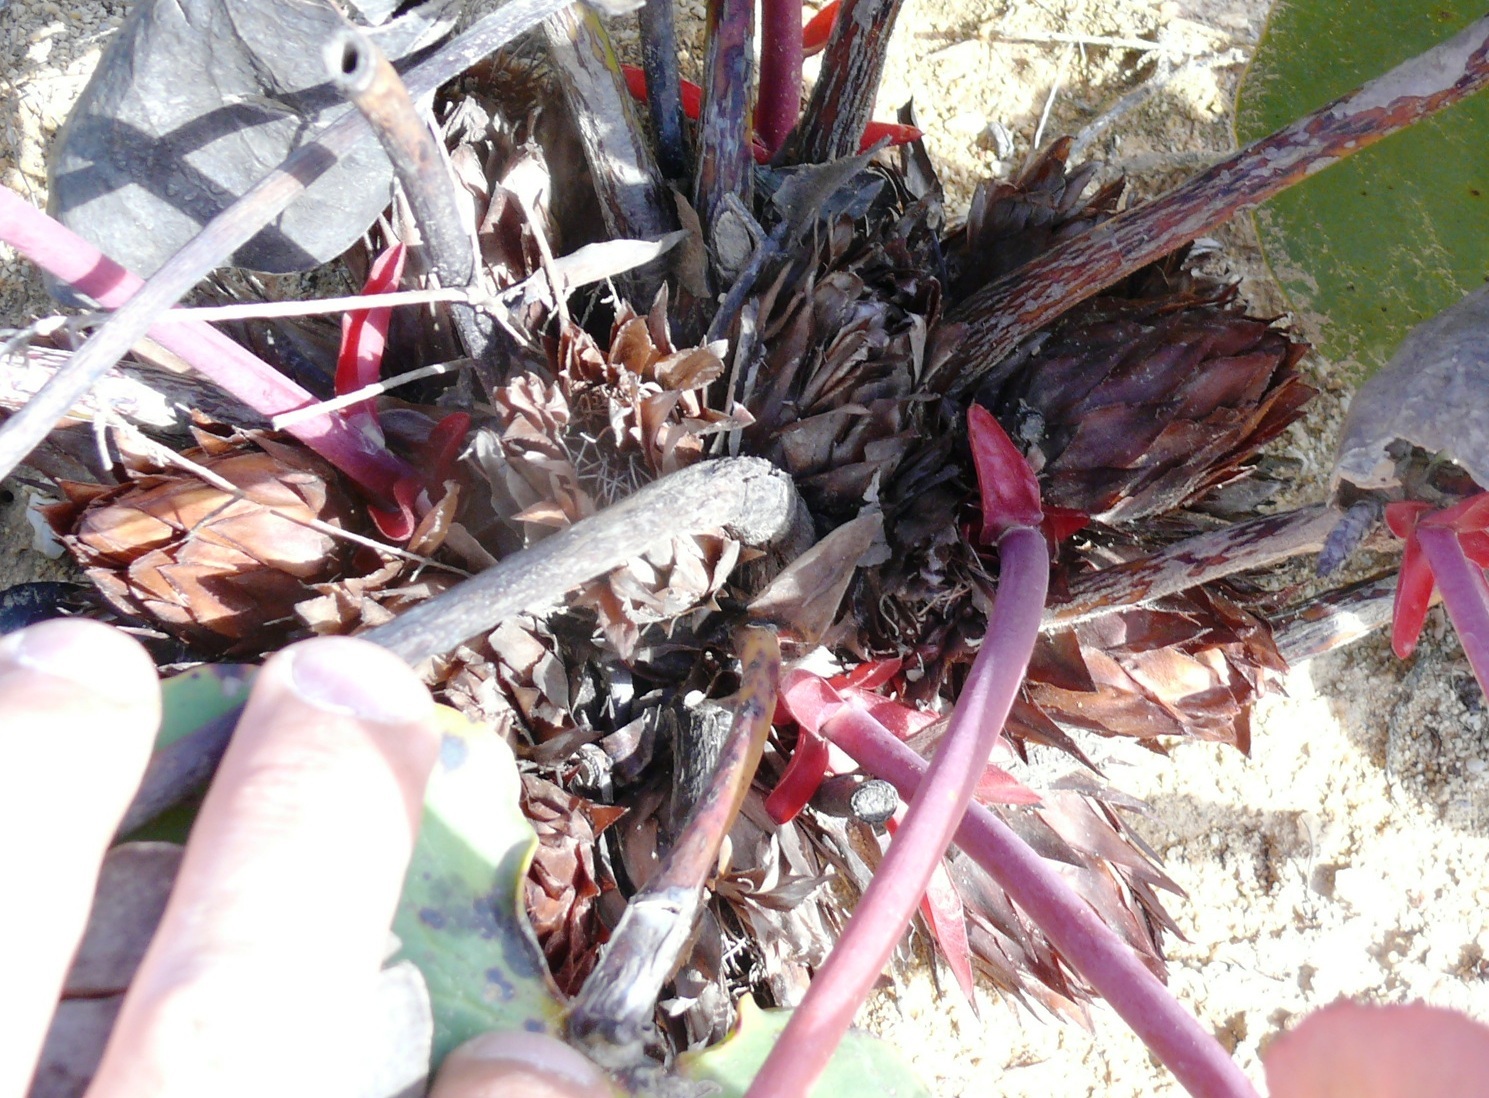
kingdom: Plantae
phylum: Tracheophyta
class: Magnoliopsida
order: Proteales
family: Proteaceae
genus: Protea
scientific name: Protea cordata
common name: Heart-leaf sugarbush
